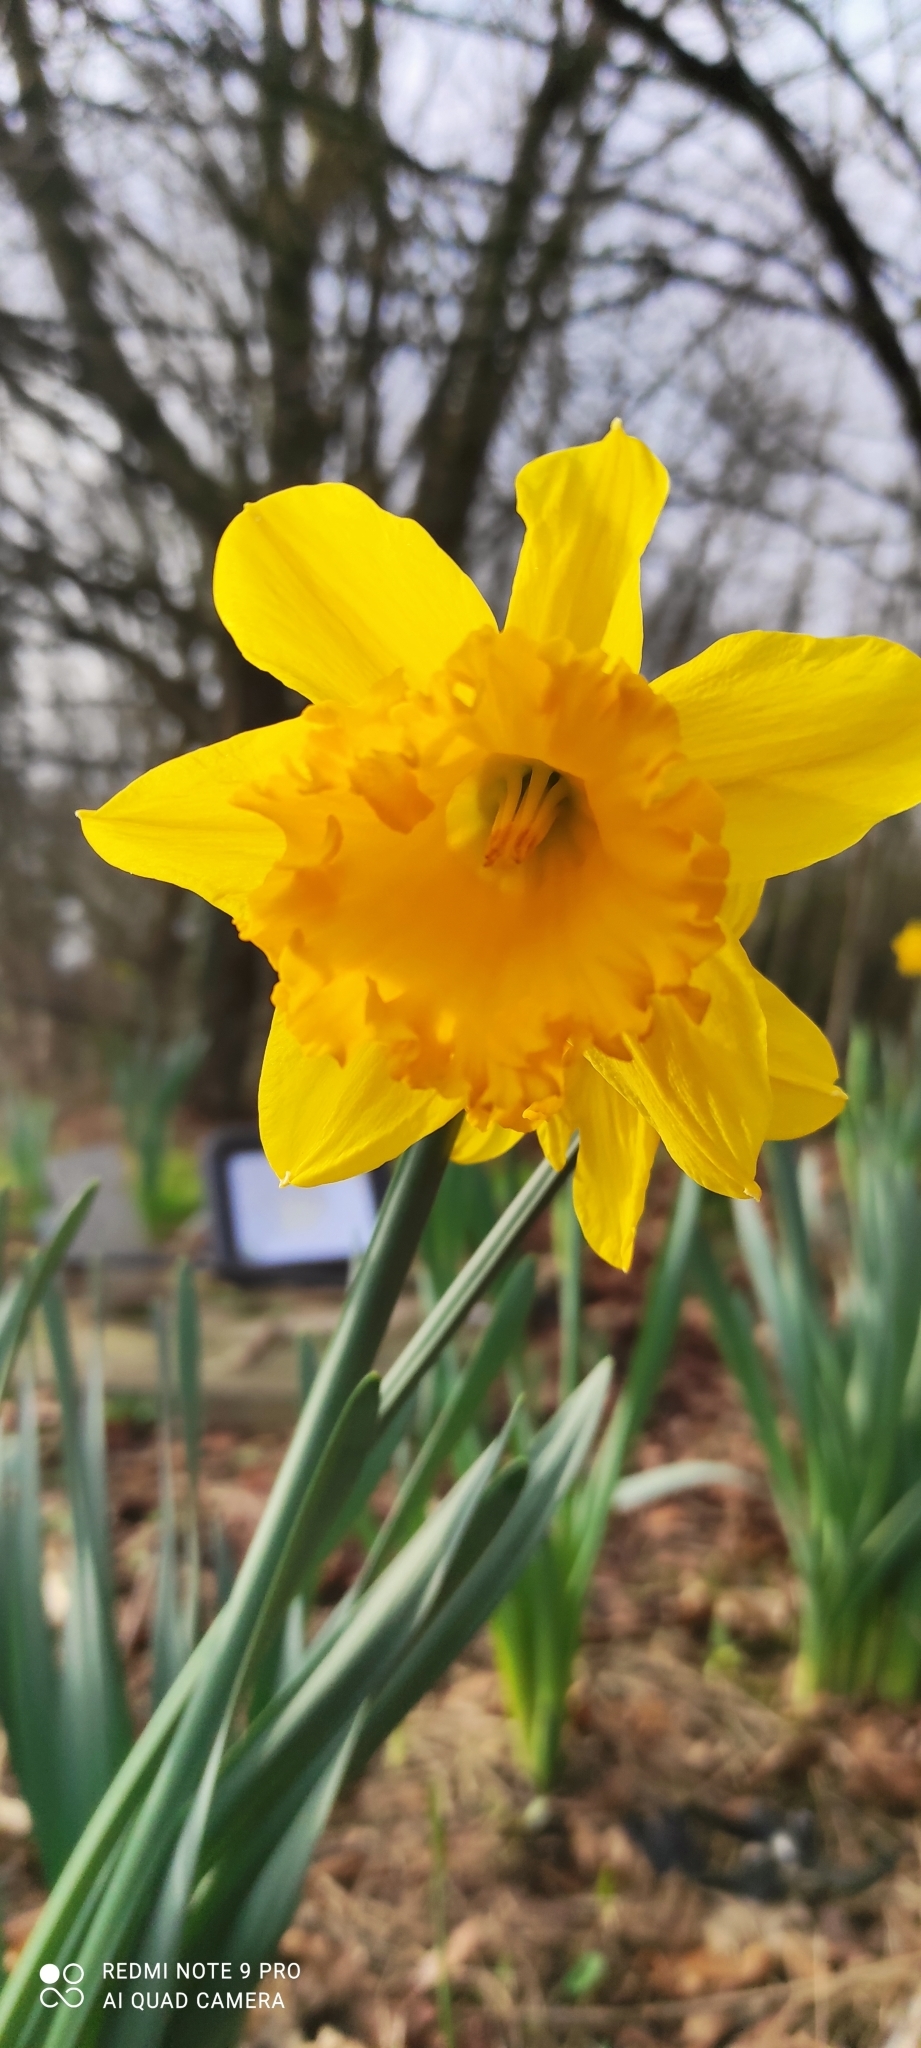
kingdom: Plantae
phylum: Tracheophyta
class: Liliopsida
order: Asparagales
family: Amaryllidaceae
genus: Narcissus
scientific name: Narcissus pseudonarcissus
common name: Daffodil
